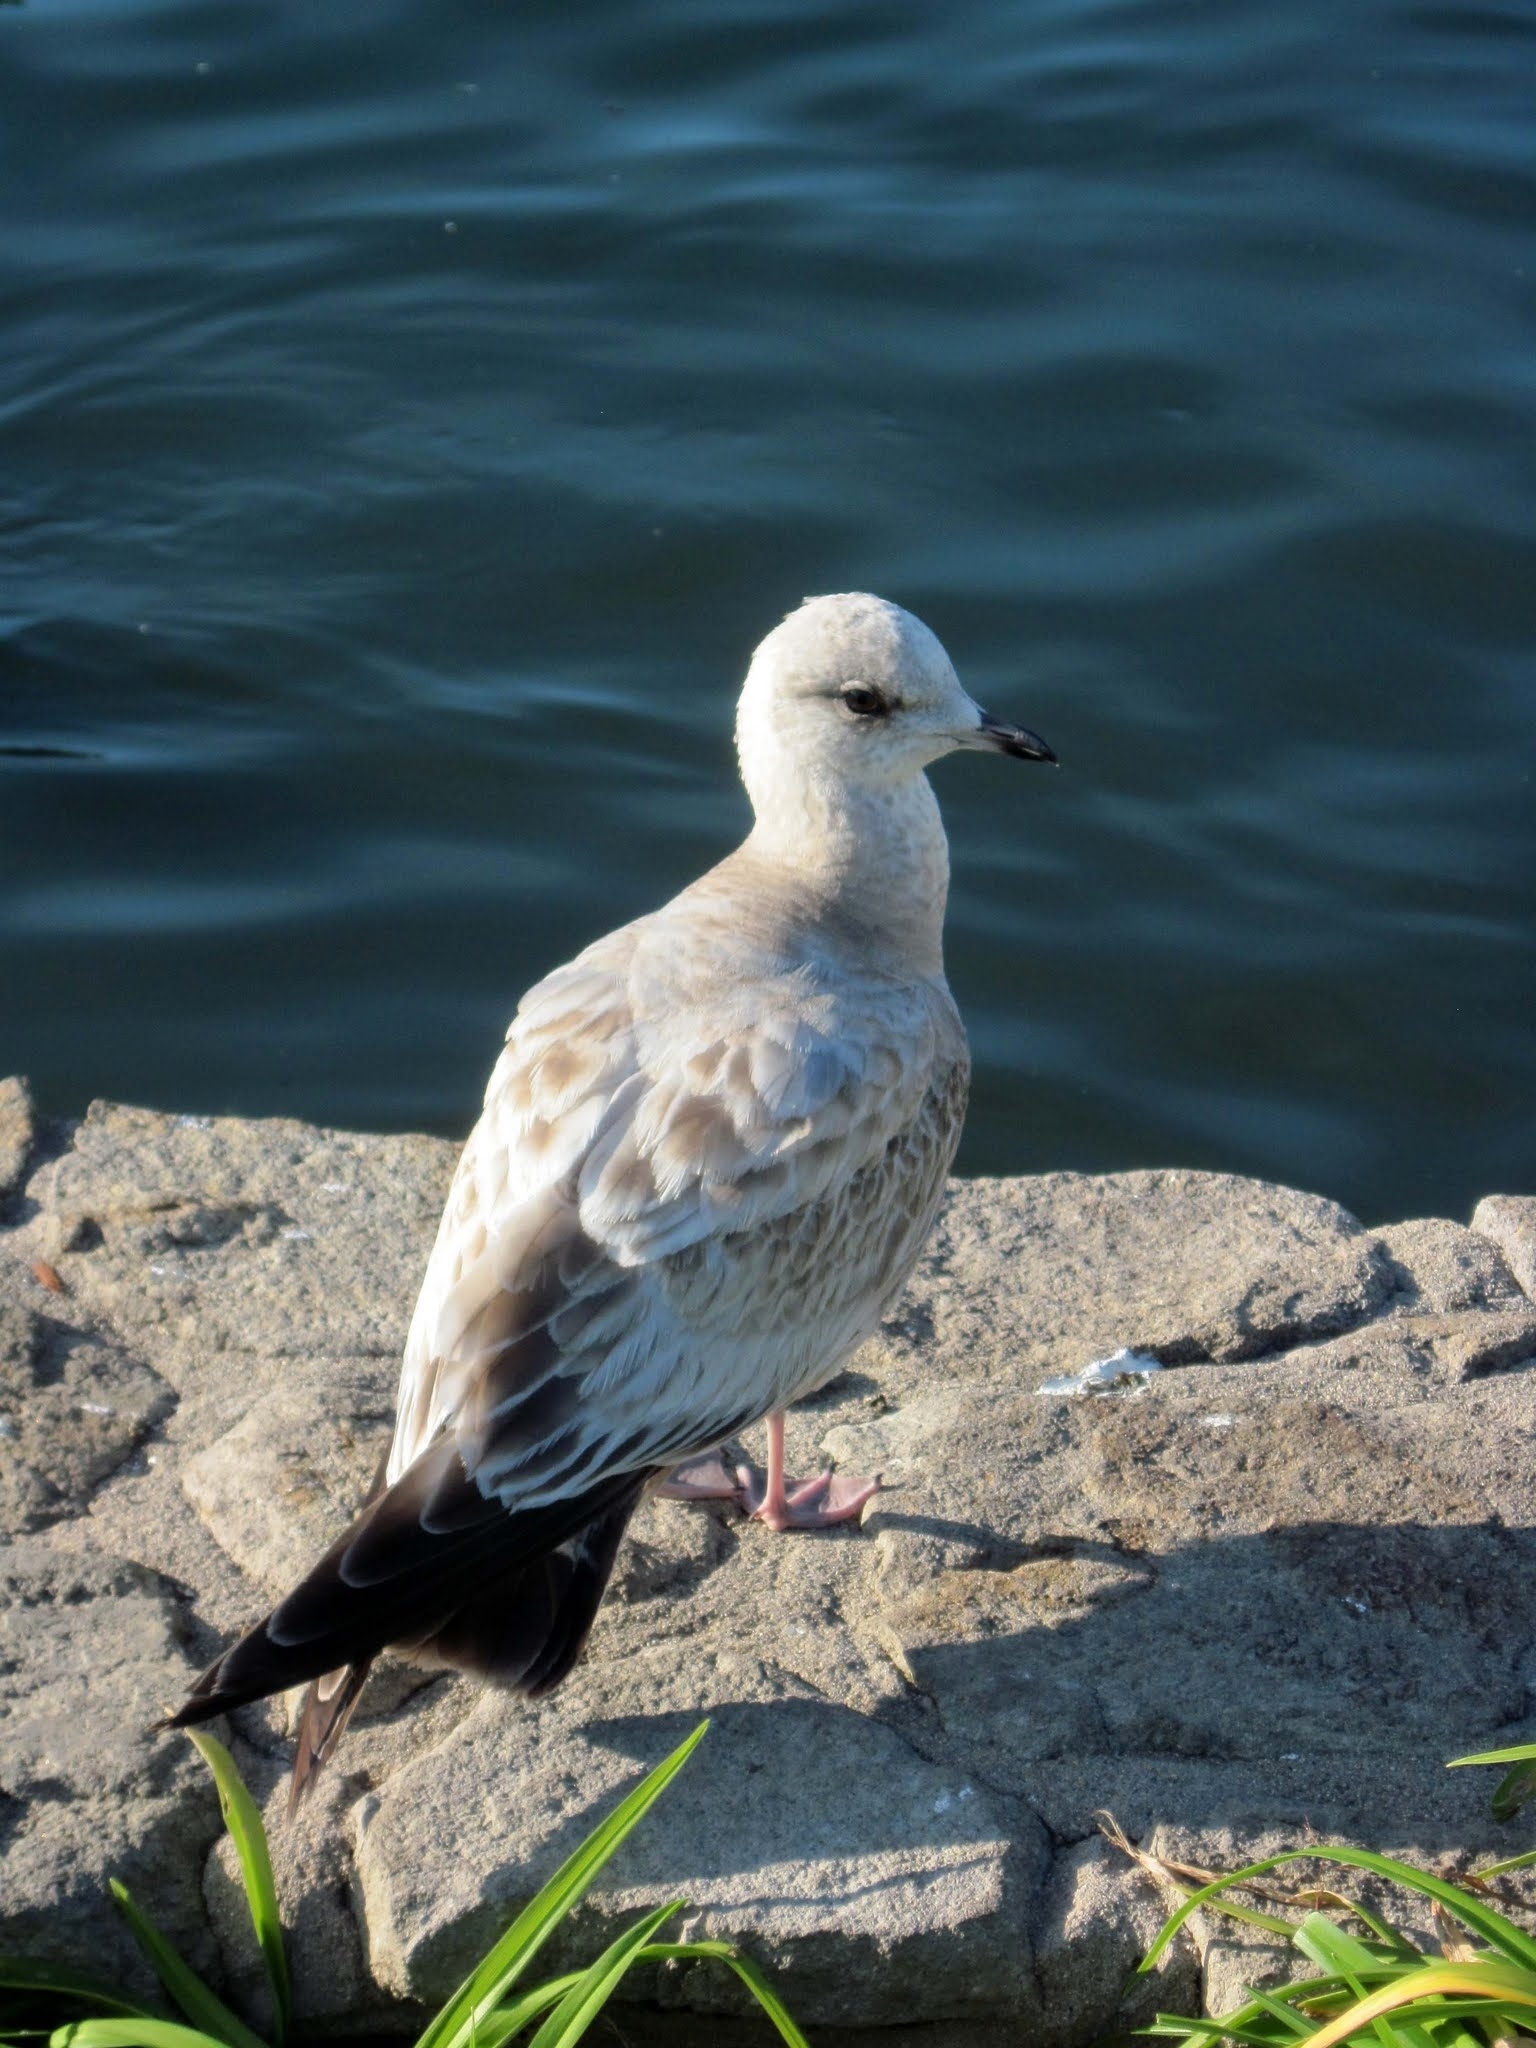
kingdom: Animalia
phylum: Chordata
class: Aves
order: Charadriiformes
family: Laridae
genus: Larus
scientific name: Larus brachyrhynchus
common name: Short-billed gull
